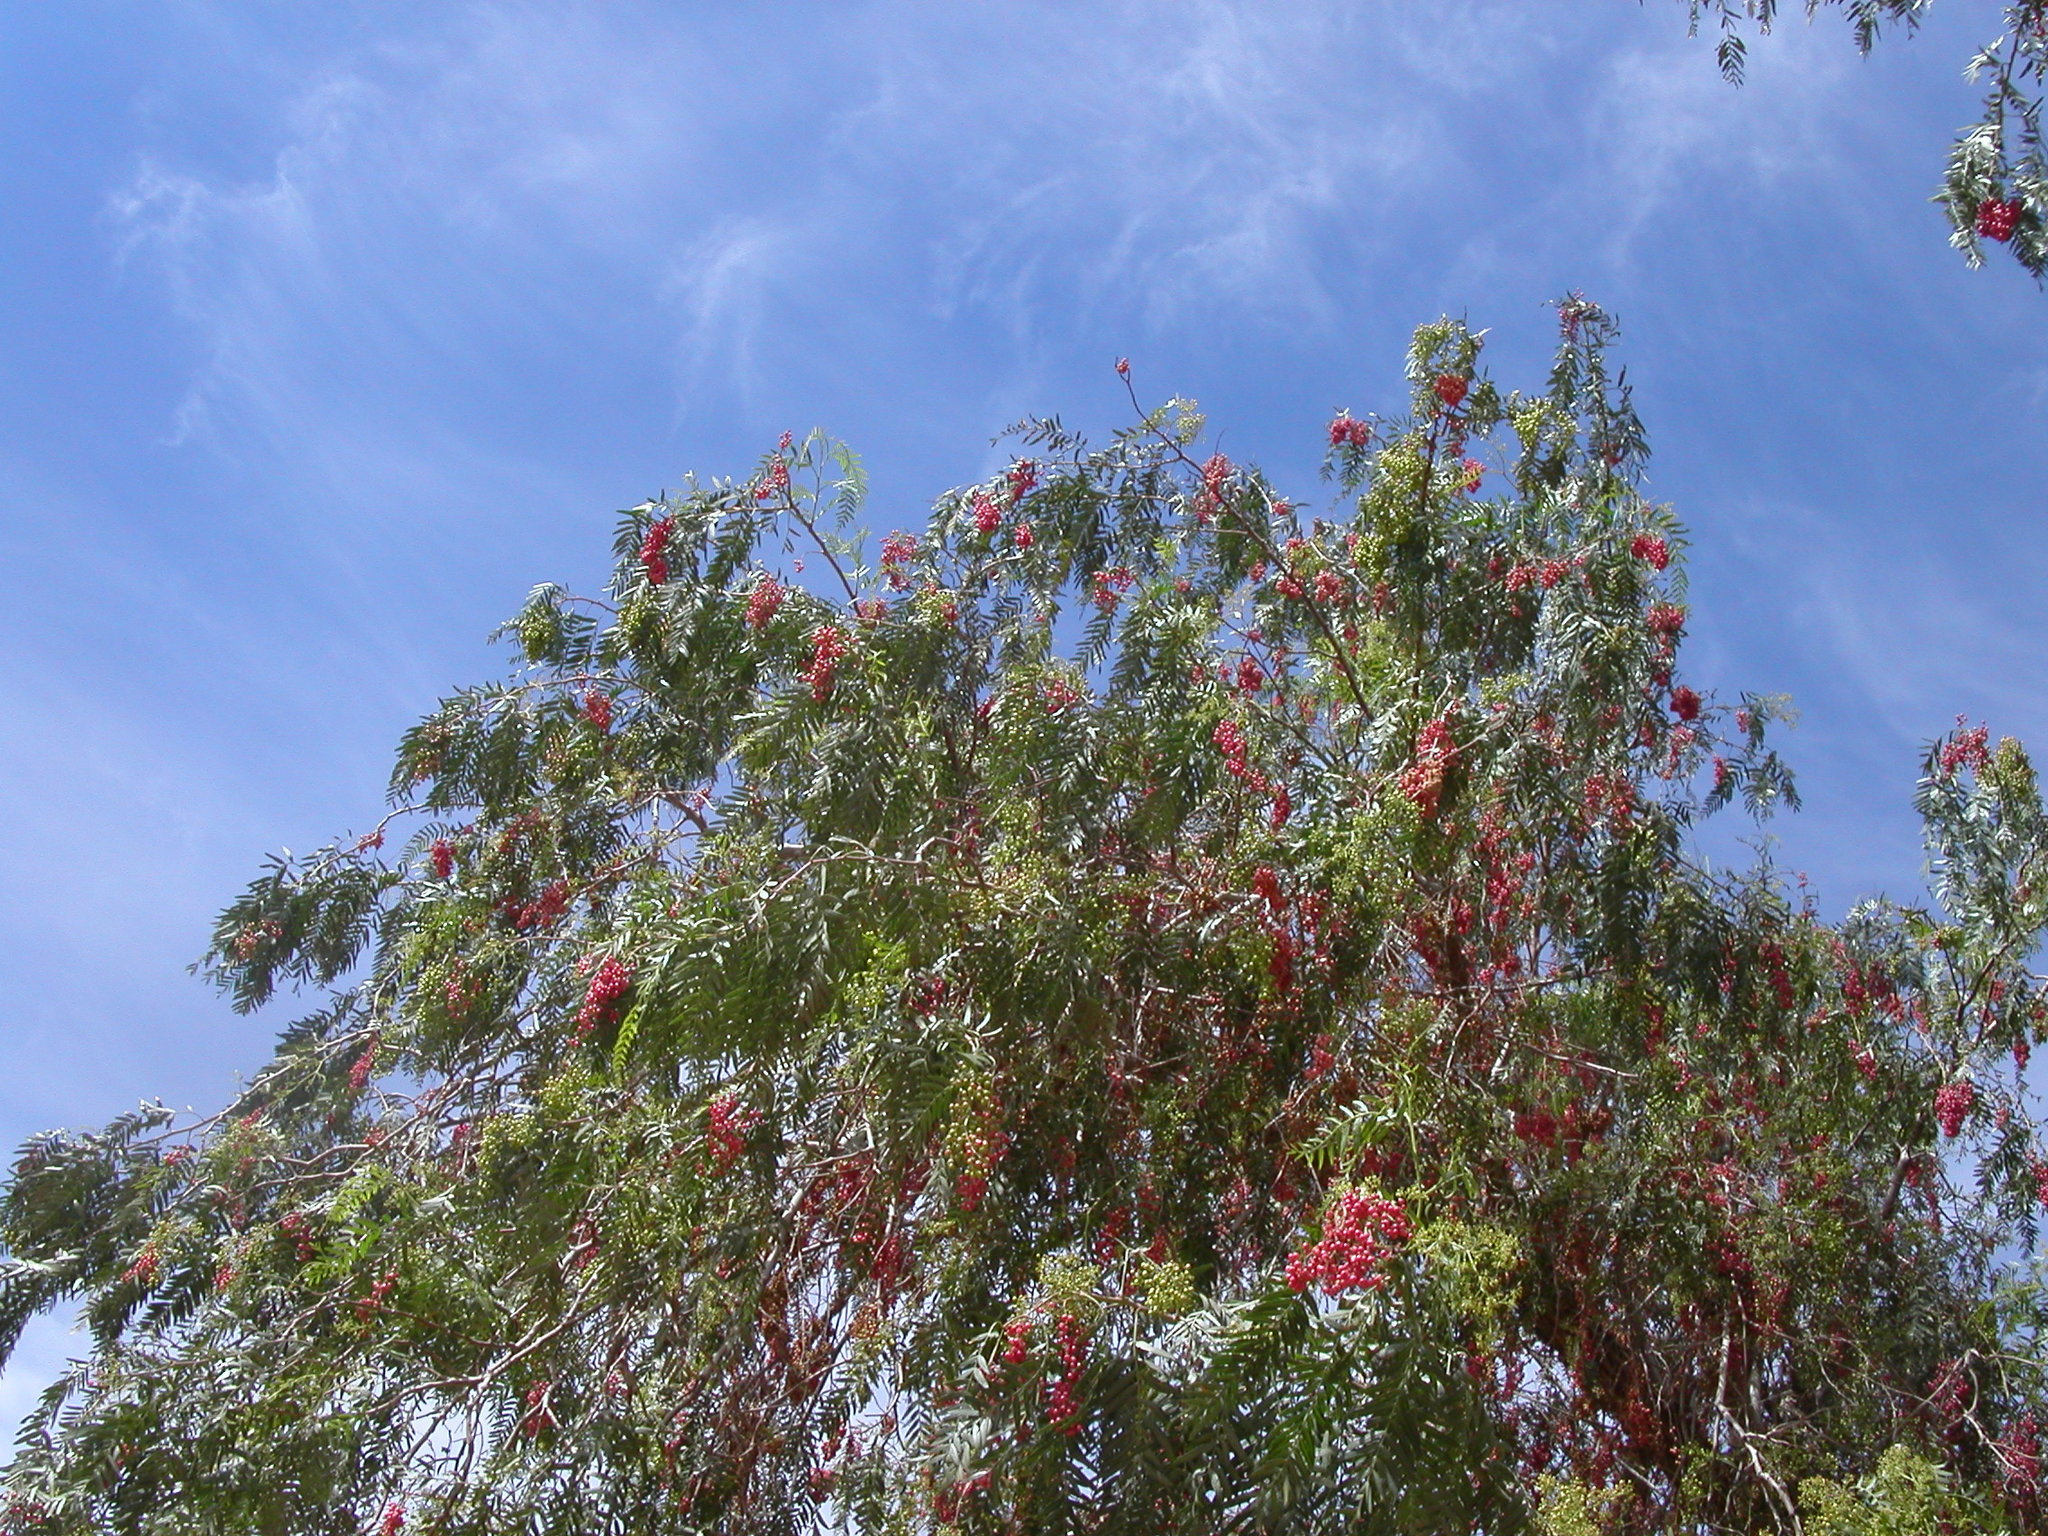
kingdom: Plantae
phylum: Tracheophyta
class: Magnoliopsida
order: Sapindales
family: Anacardiaceae
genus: Schinus
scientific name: Schinus molle
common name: Peruvian peppertree
